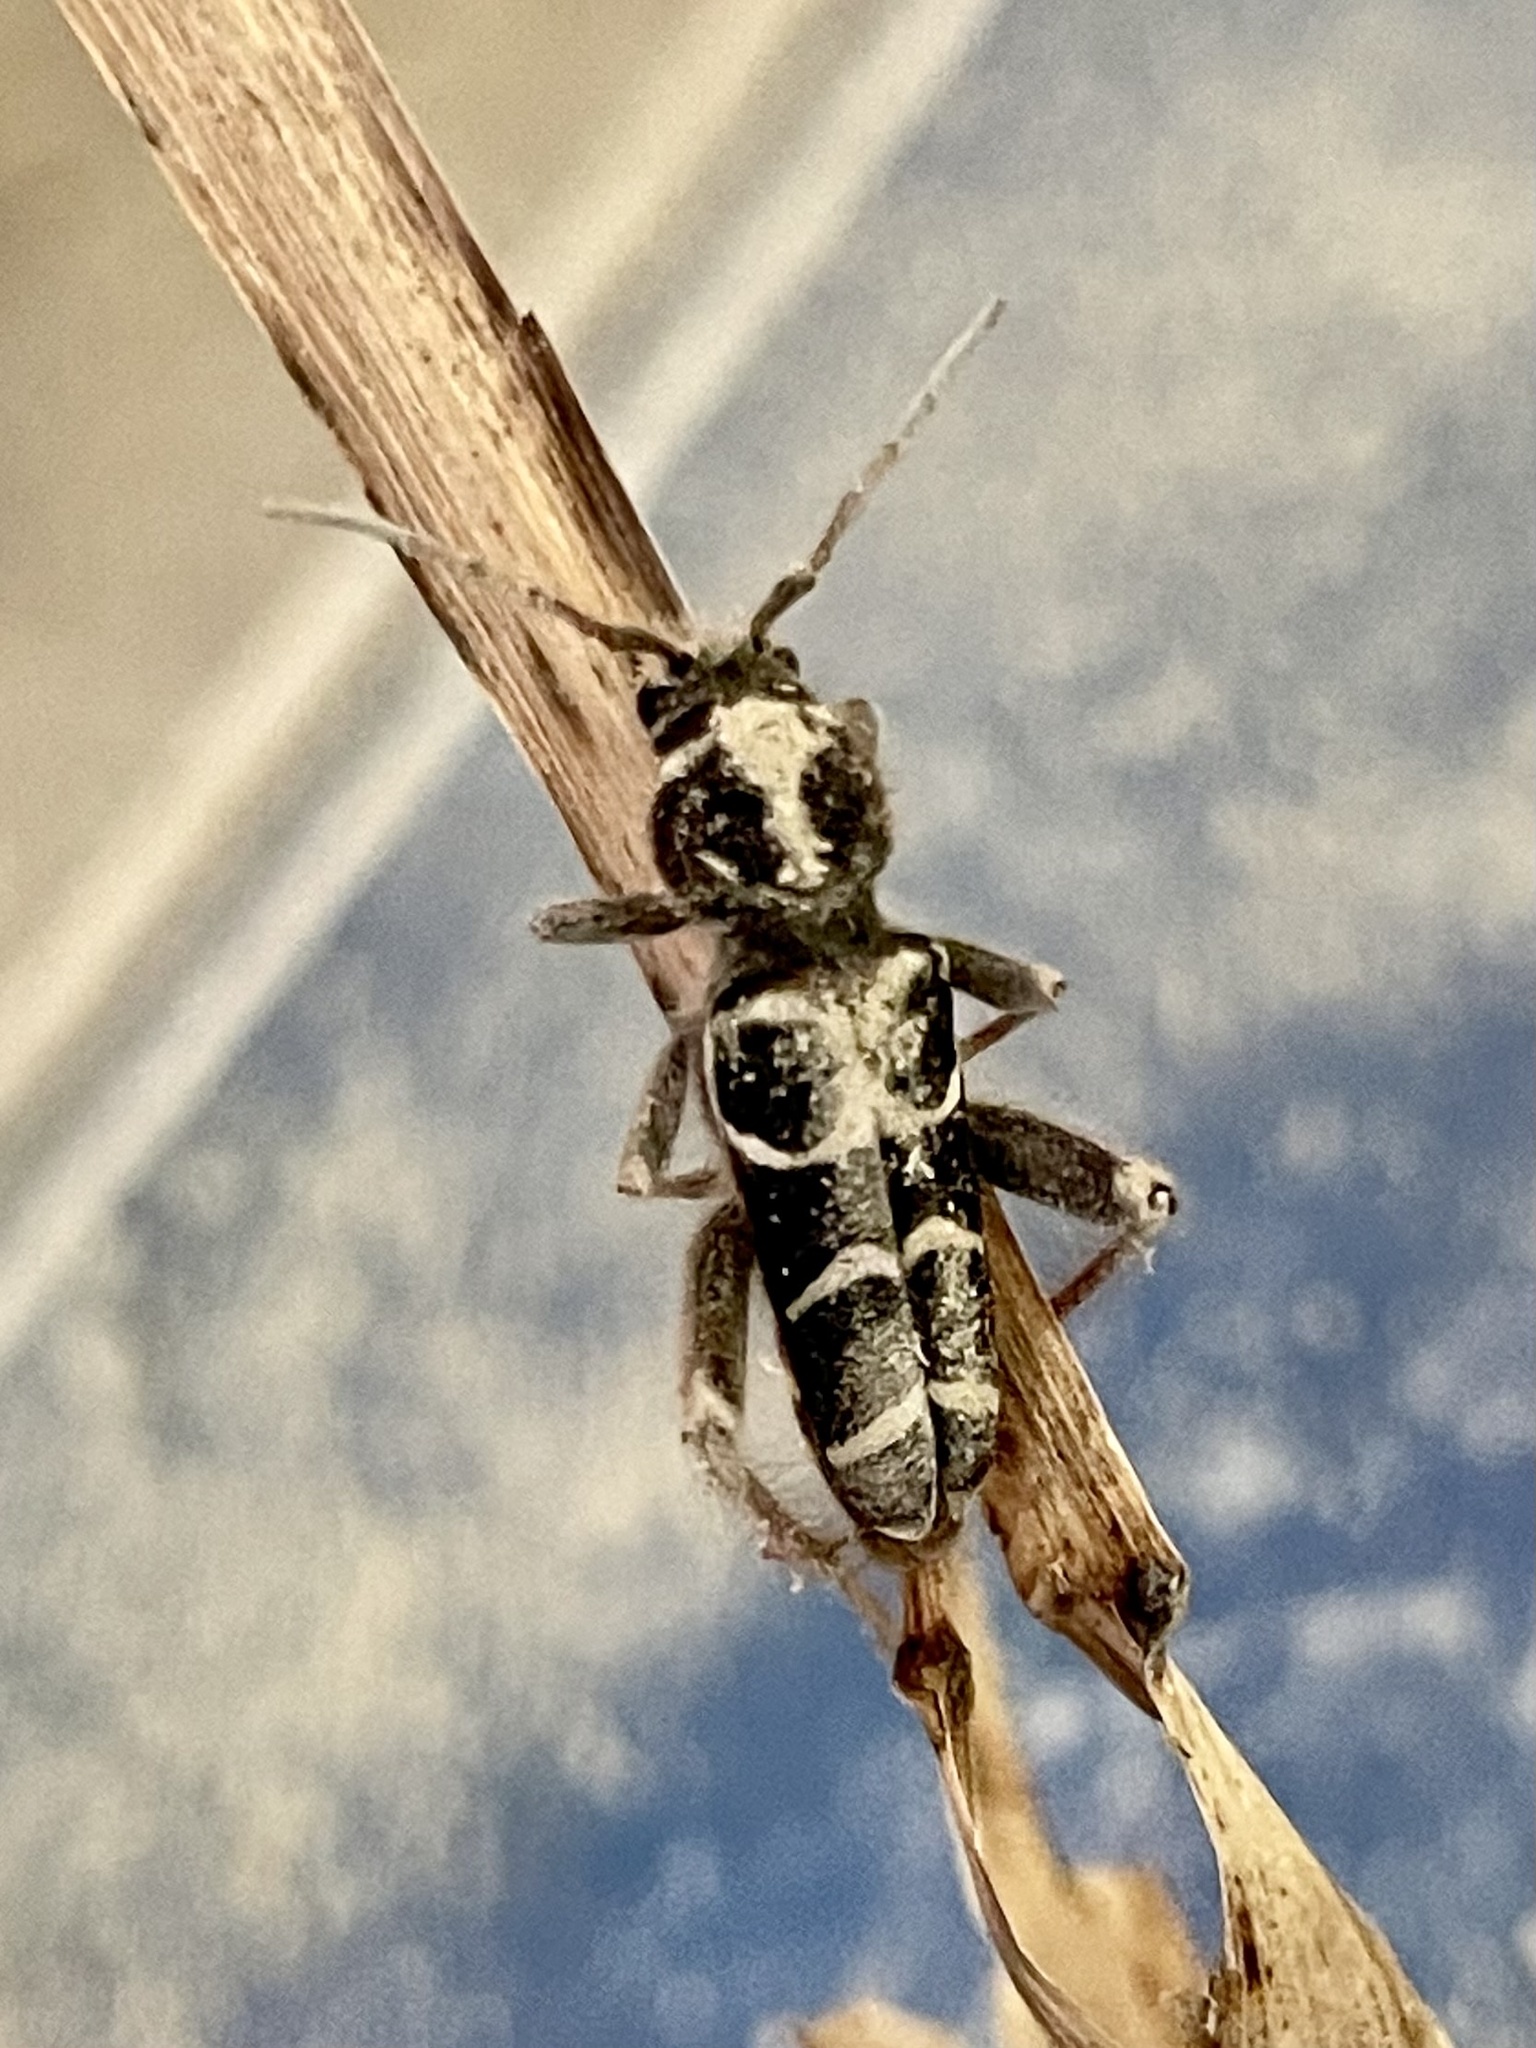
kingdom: Animalia
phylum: Arthropoda
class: Insecta
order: Coleoptera
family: Cerambycidae
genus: Xylotrechus
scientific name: Xylotrechus colonus
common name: Long-horned beetle
